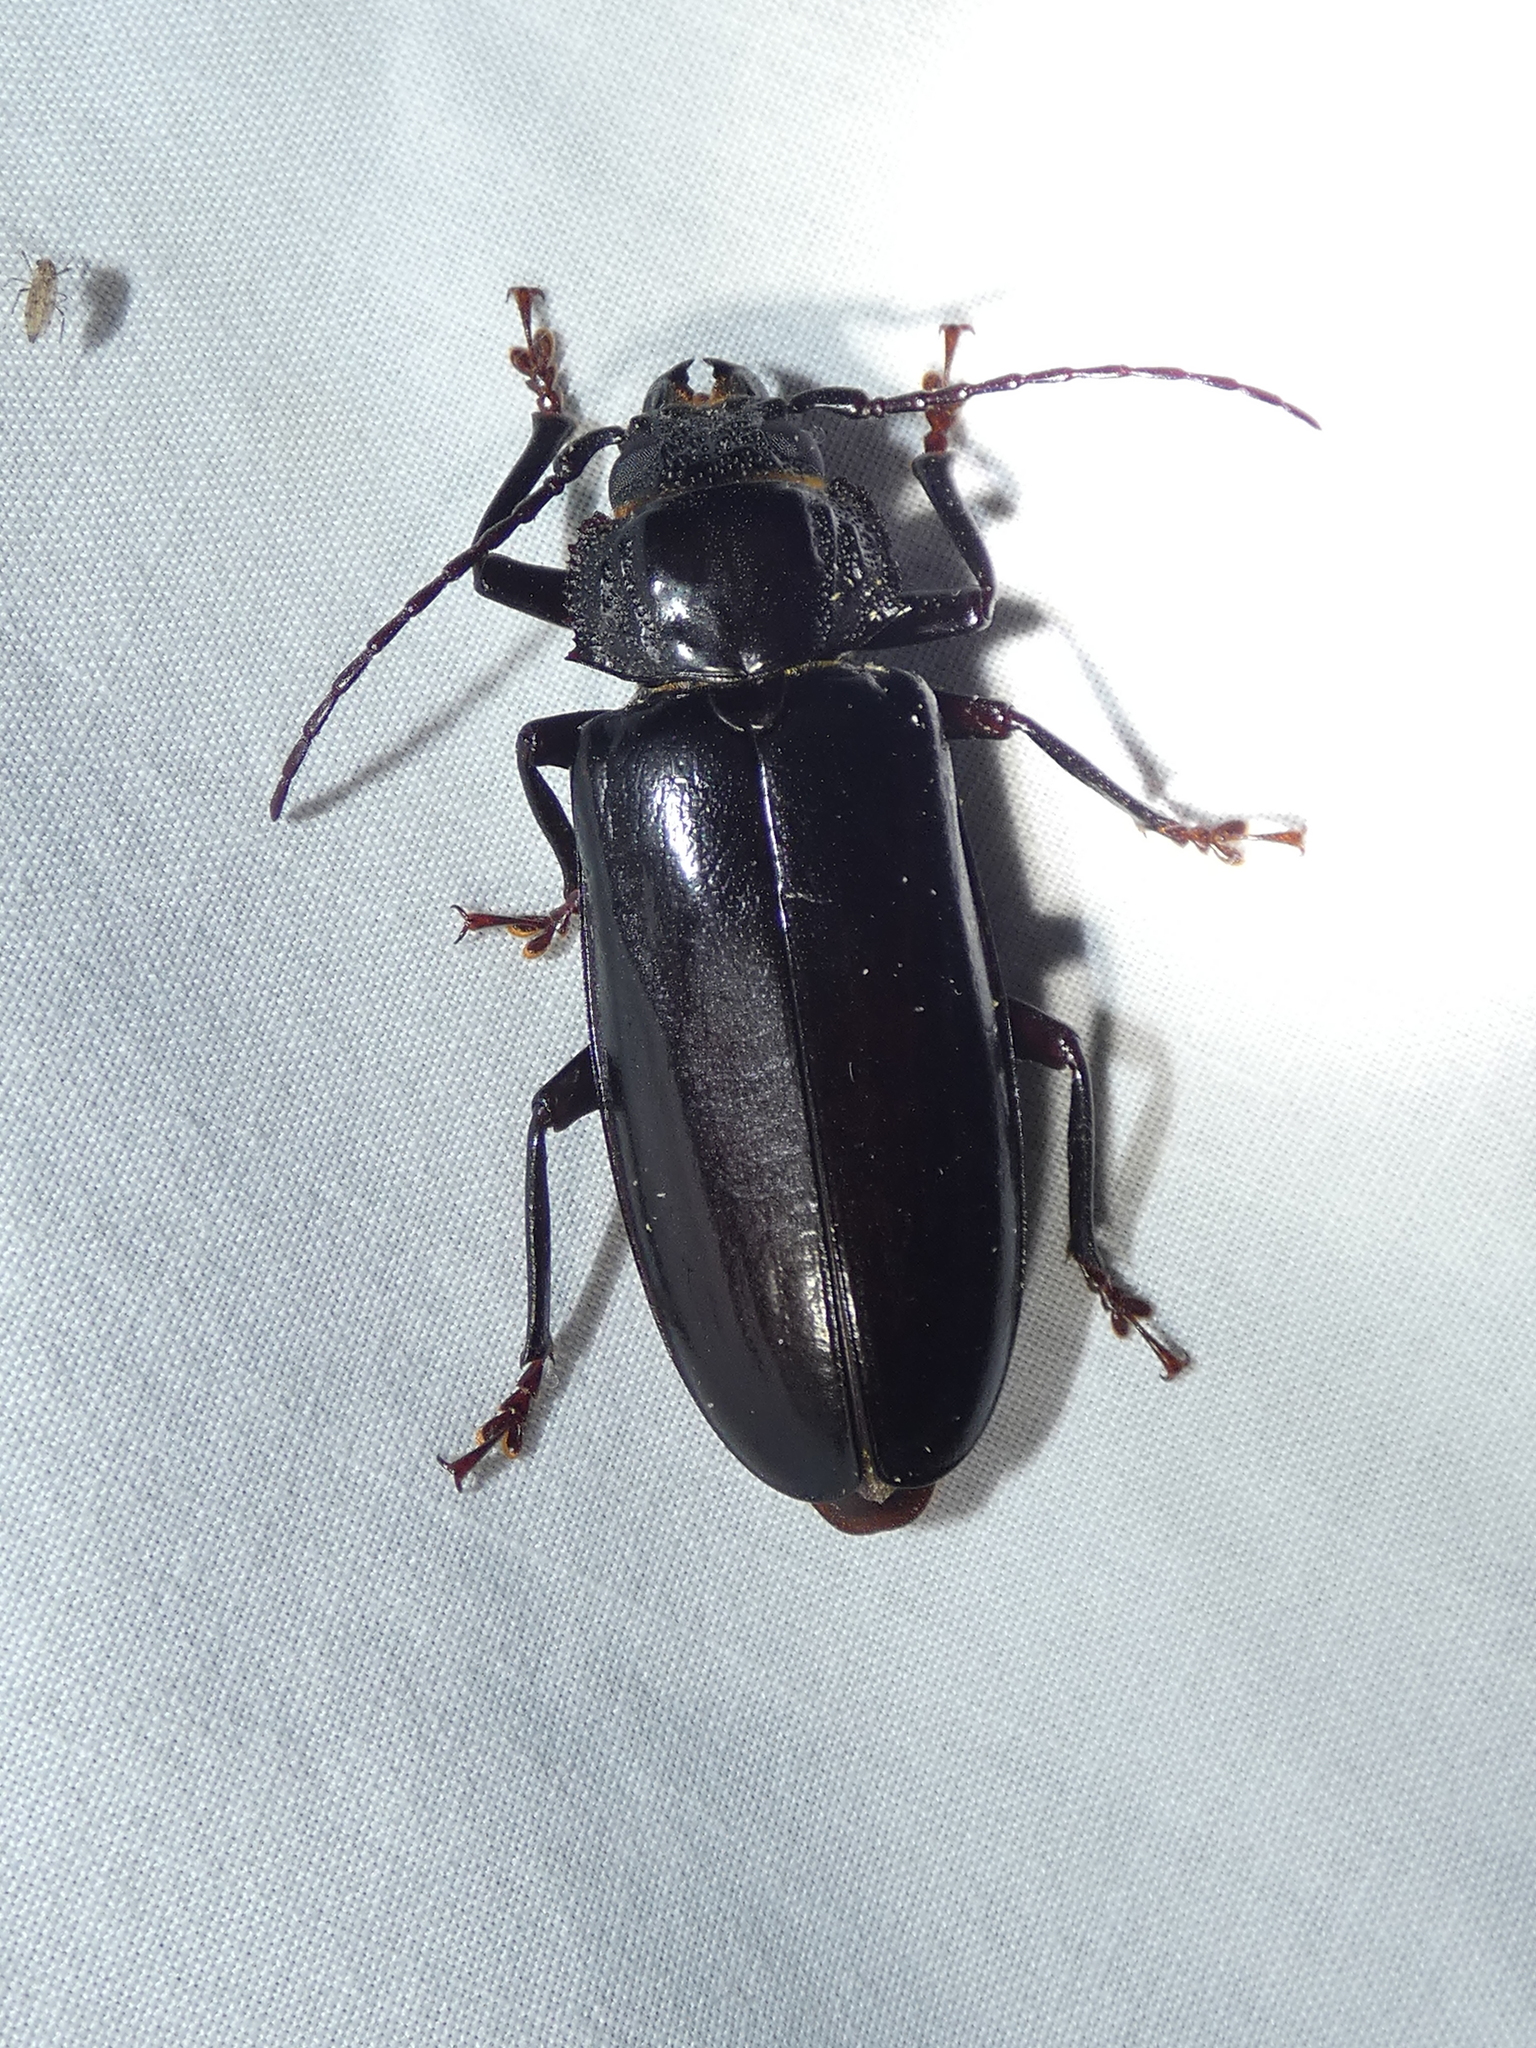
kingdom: Animalia
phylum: Arthropoda
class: Insecta
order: Coleoptera
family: Cerambycidae
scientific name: Cerambycidae
